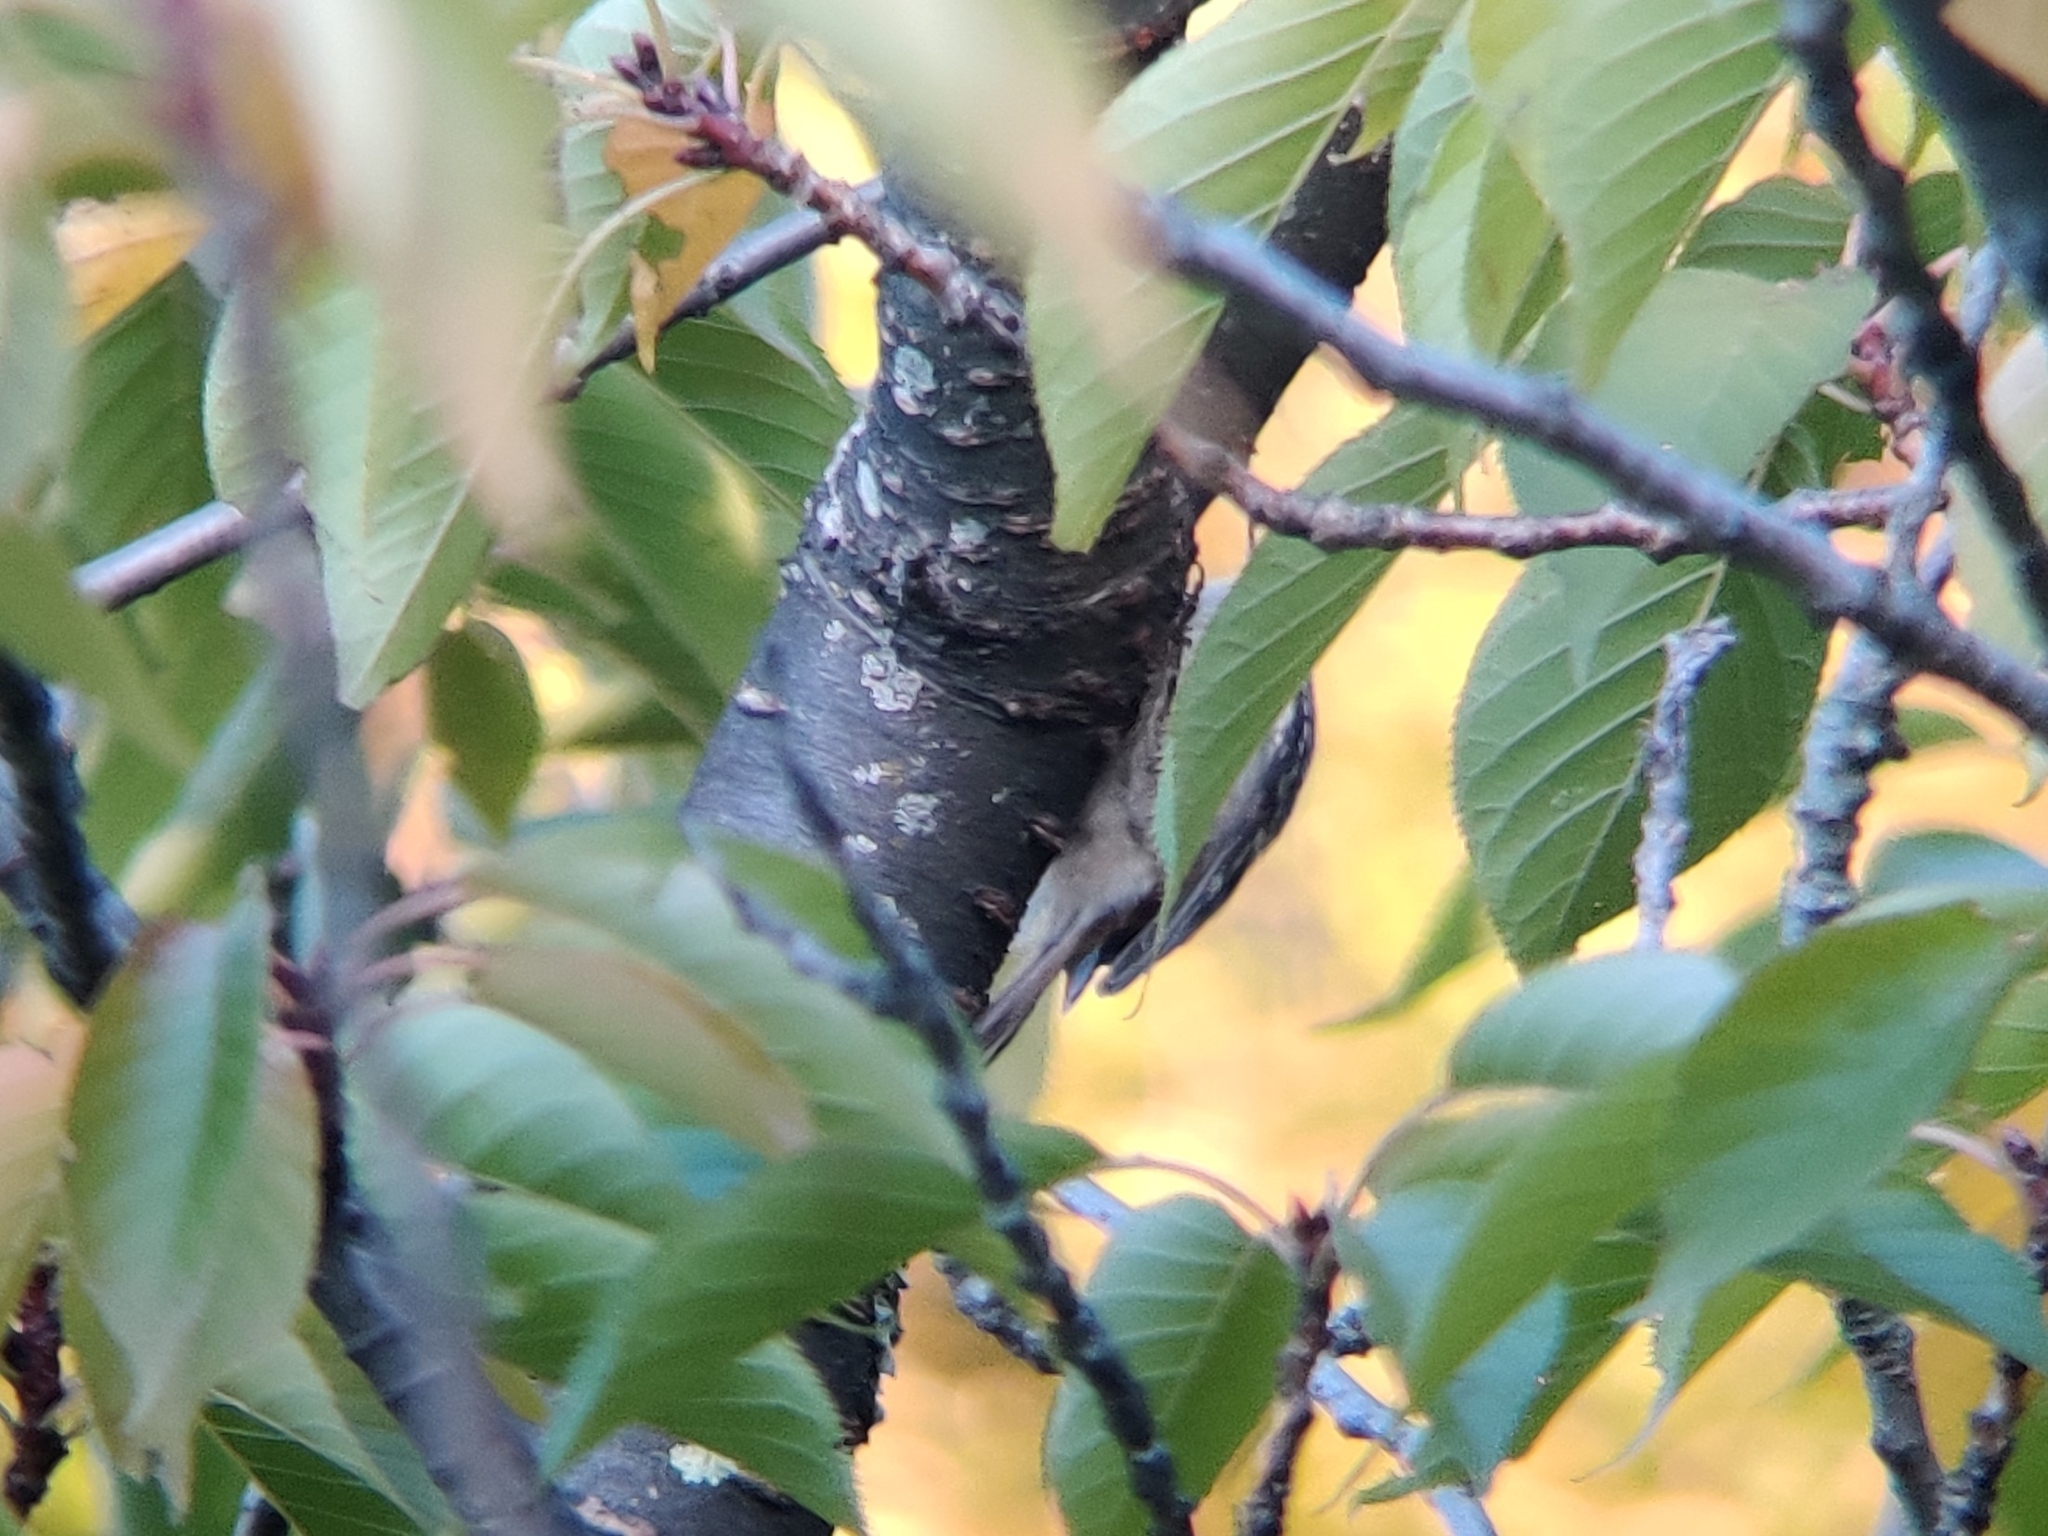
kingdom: Animalia
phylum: Chordata
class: Aves
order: Passeriformes
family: Certhiidae
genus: Certhia
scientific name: Certhia americana
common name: Brown creeper
